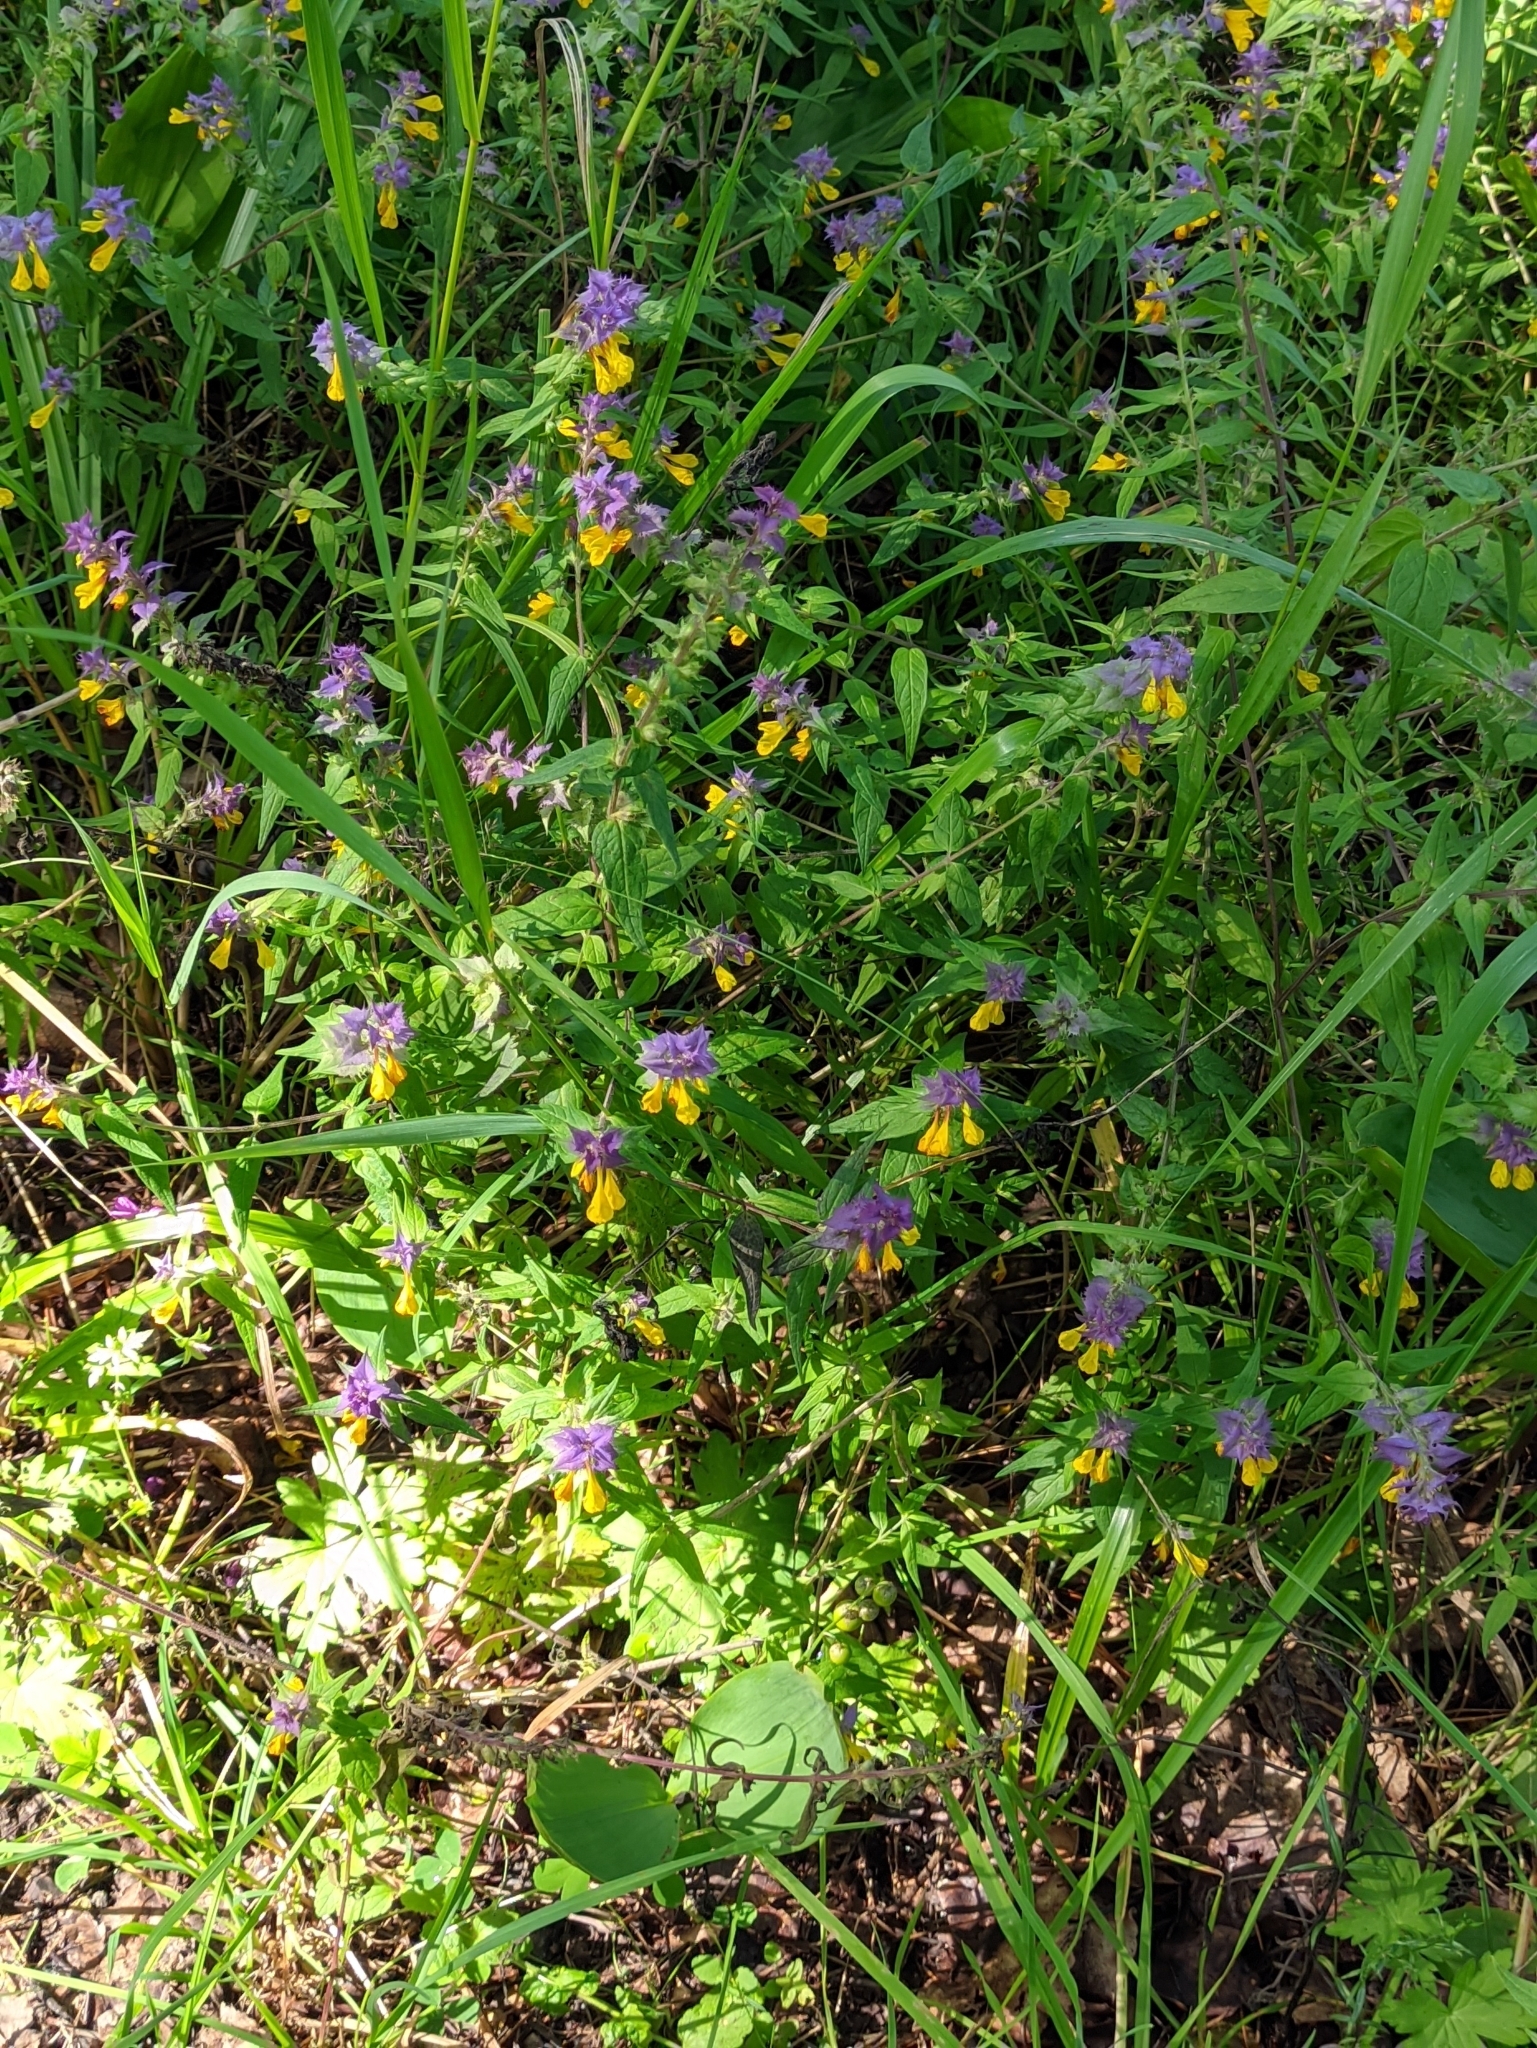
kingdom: Plantae
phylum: Tracheophyta
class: Magnoliopsida
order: Lamiales
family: Orobanchaceae
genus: Melampyrum
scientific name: Melampyrum nemorosum
